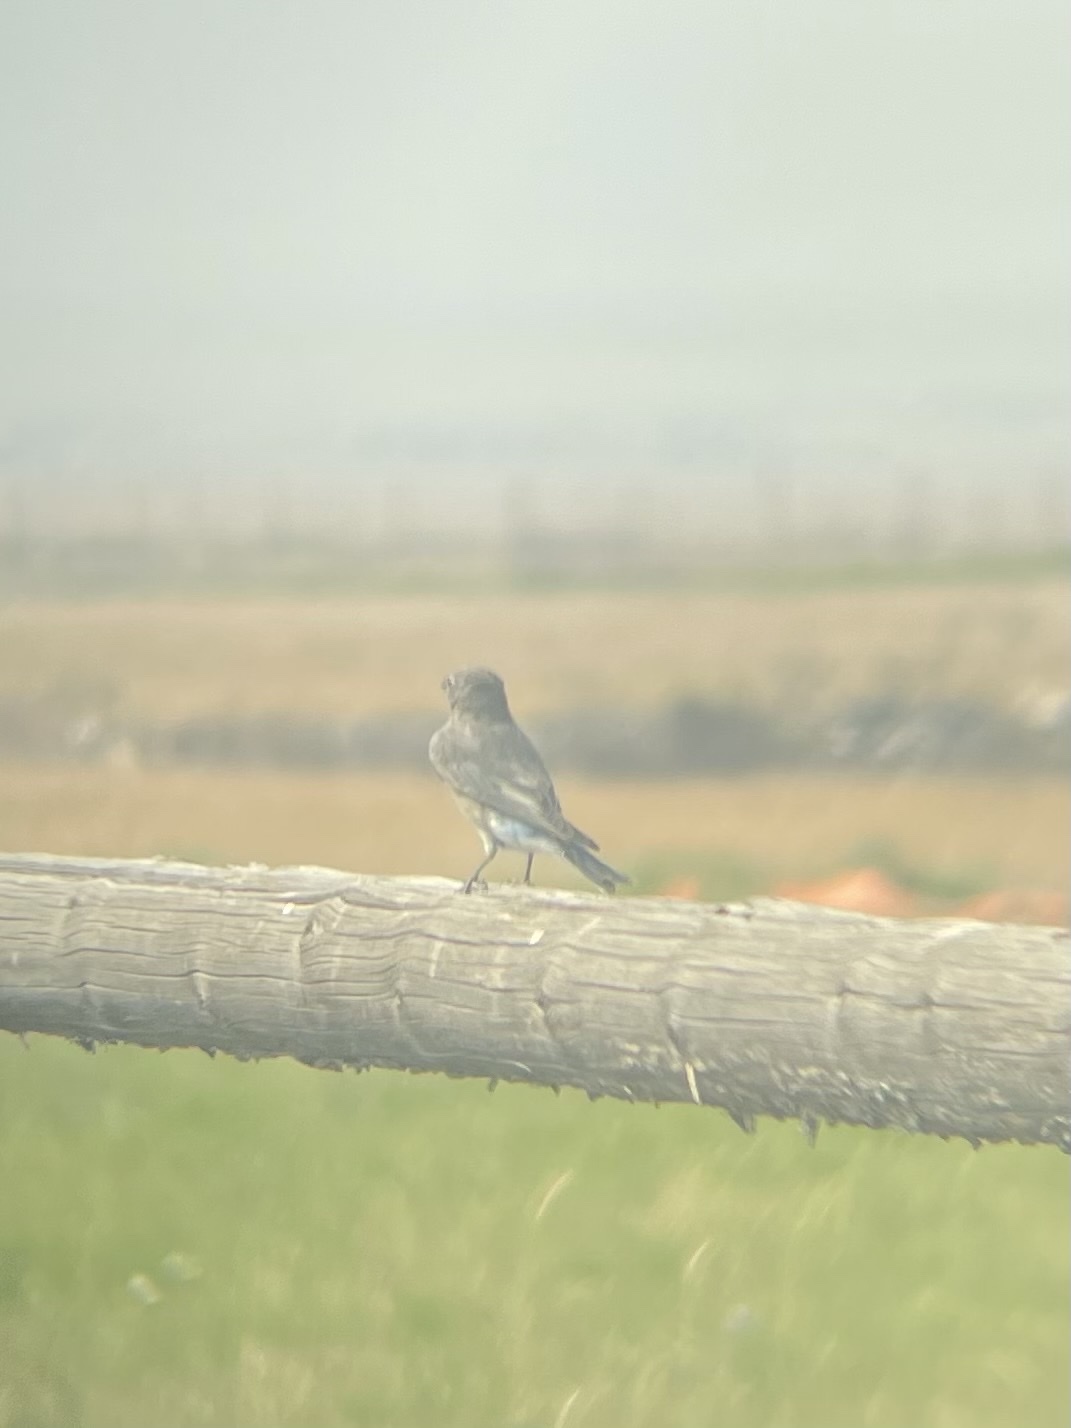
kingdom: Animalia
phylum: Chordata
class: Aves
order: Passeriformes
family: Turdidae
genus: Sialia
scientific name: Sialia currucoides
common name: Mountain bluebird
